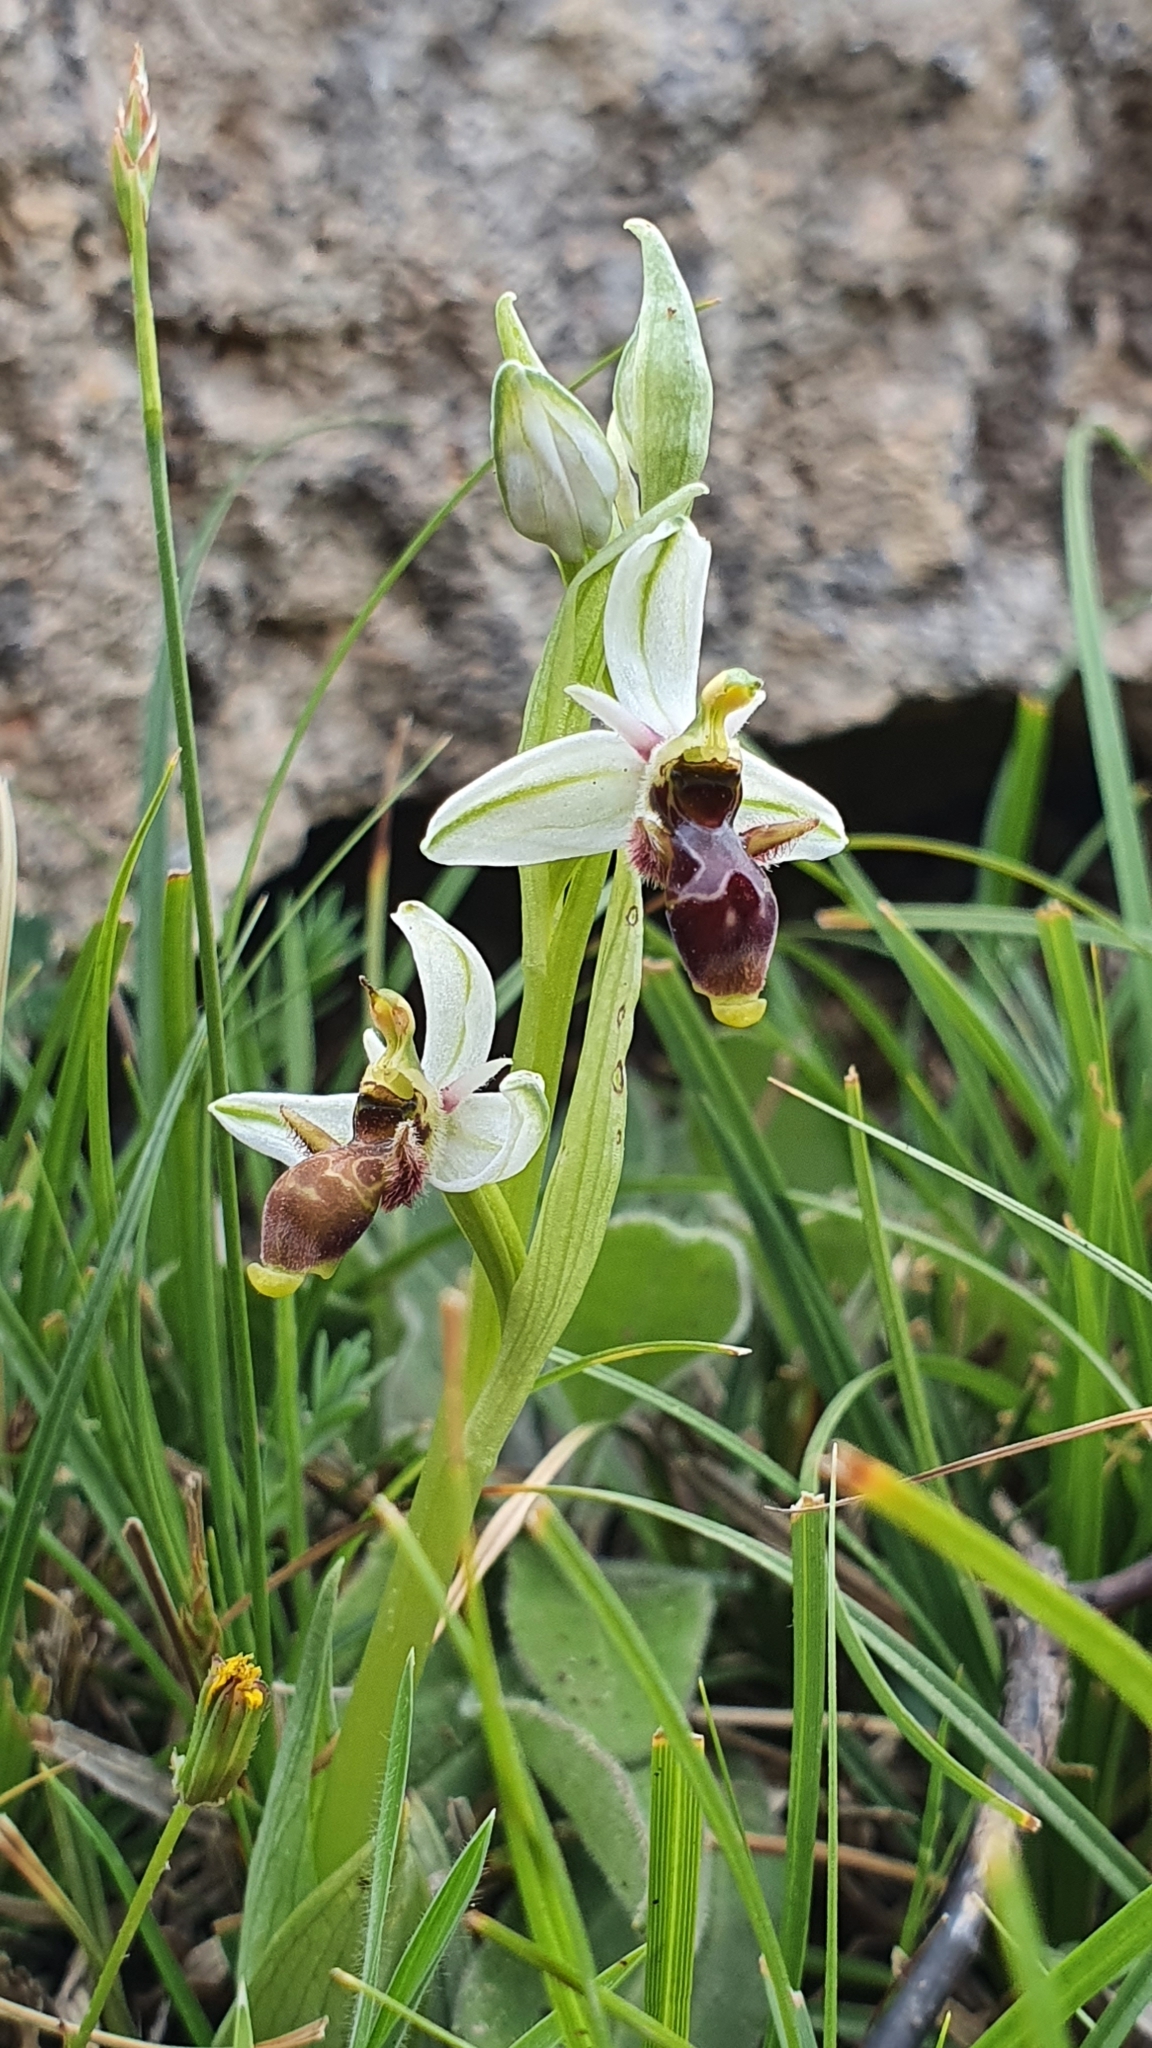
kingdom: Plantae
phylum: Tracheophyta
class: Liliopsida
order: Asparagales
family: Orchidaceae
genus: Ophrys
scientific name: Ophrys scolopax
